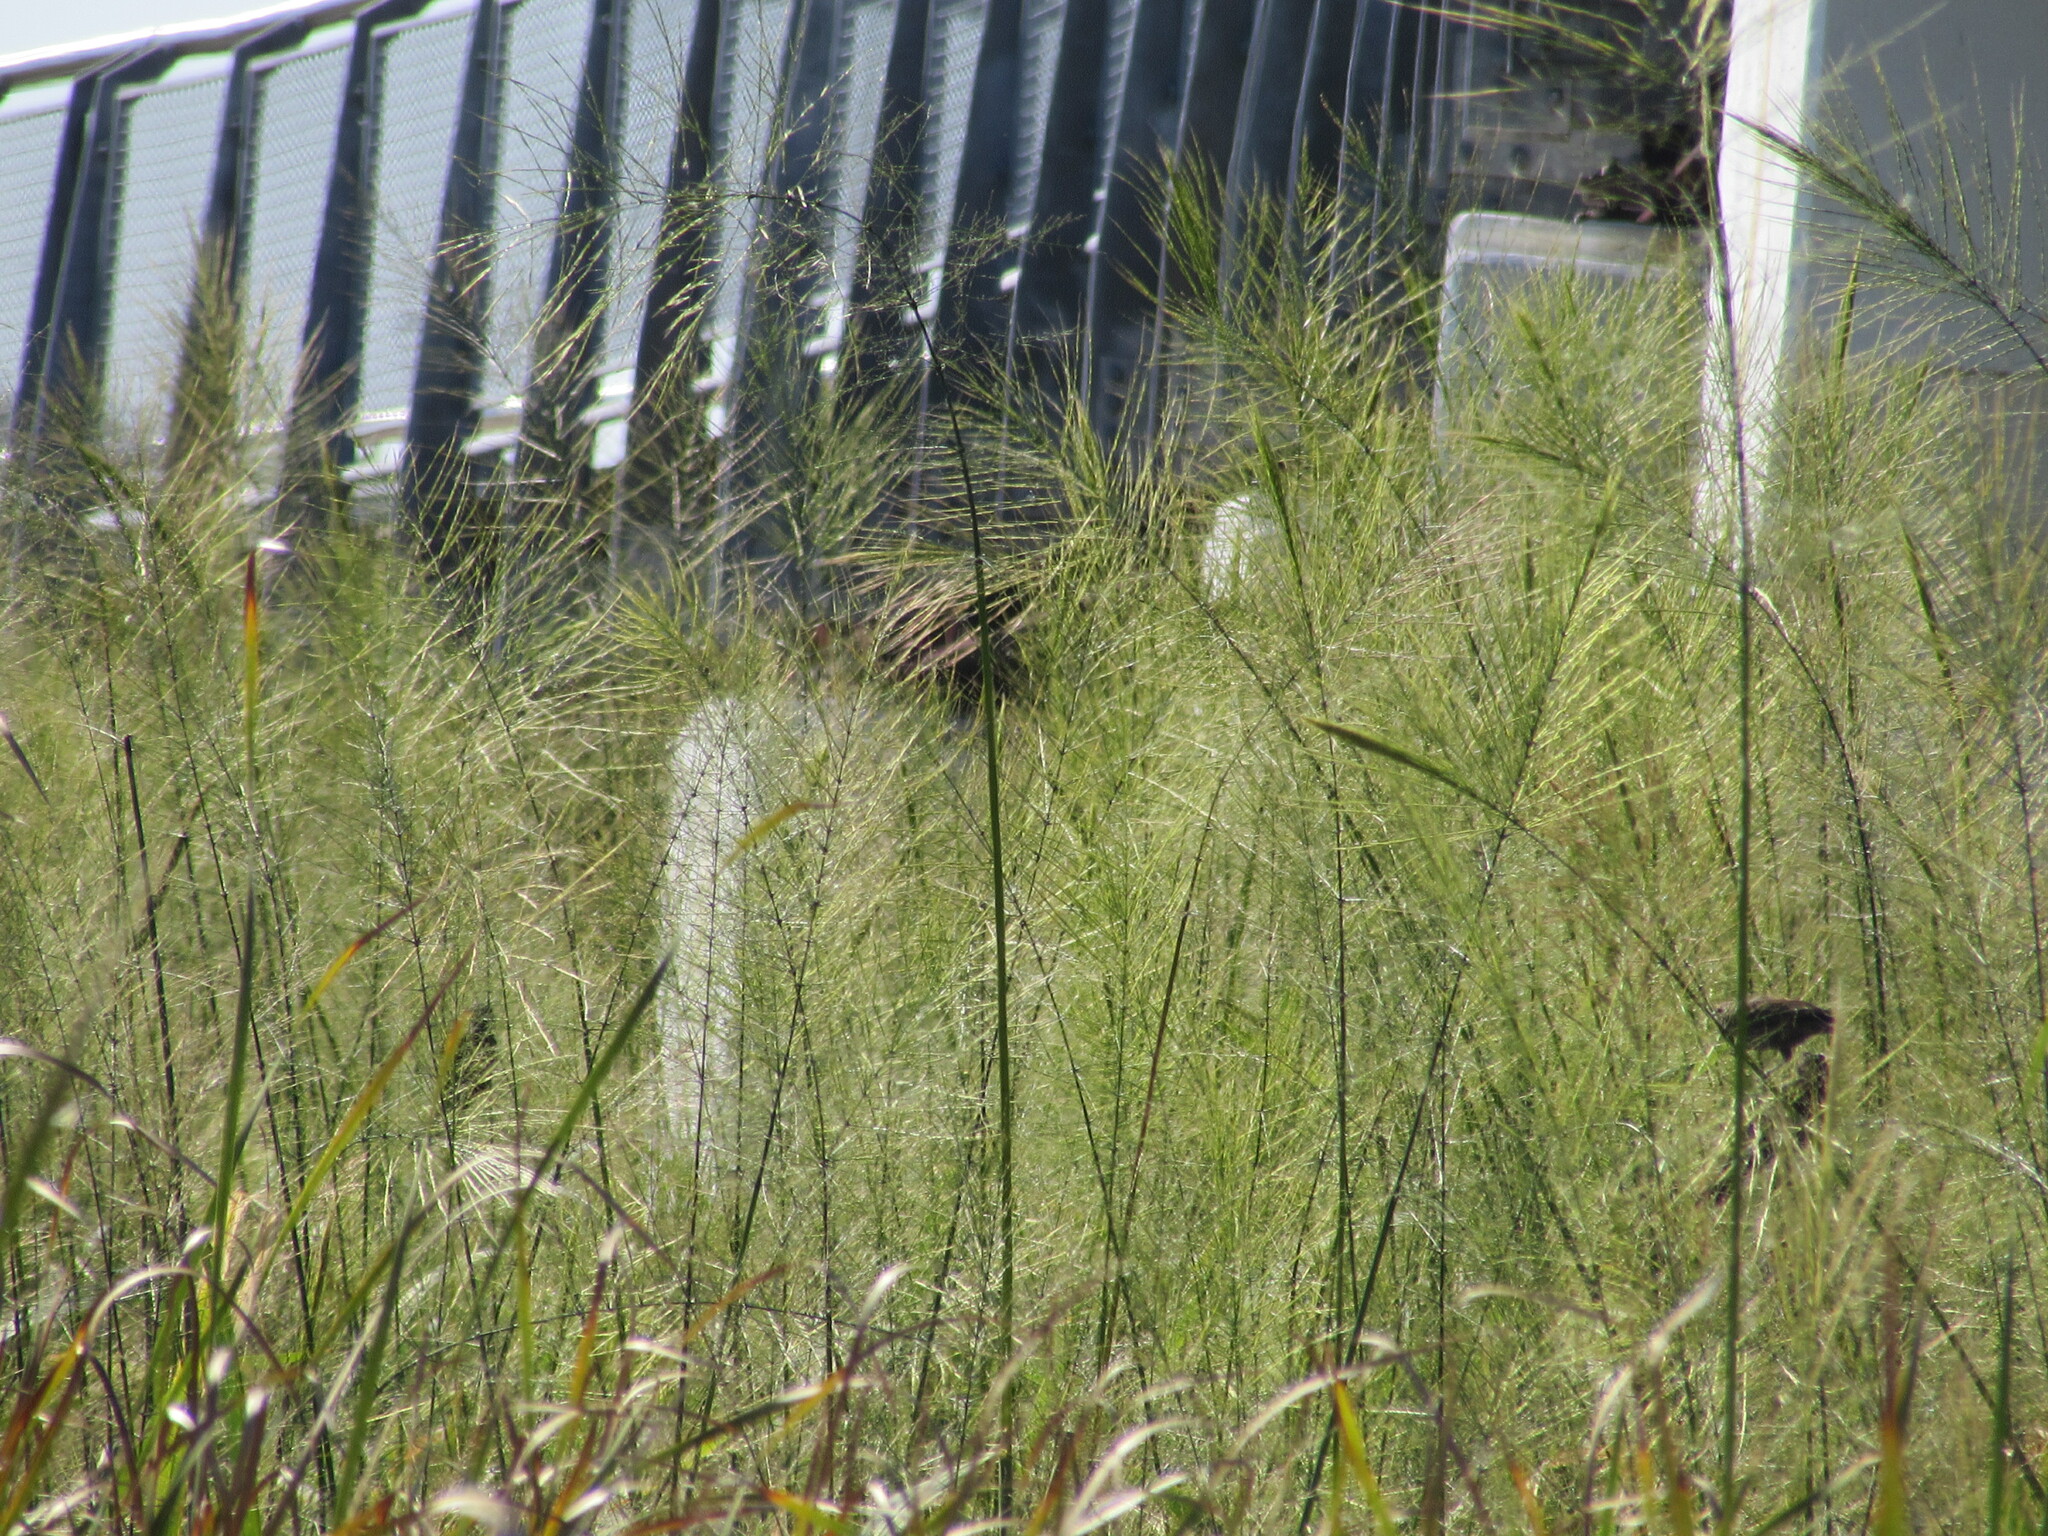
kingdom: Plantae
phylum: Tracheophyta
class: Liliopsida
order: Poales
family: Poaceae
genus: Zizania
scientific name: Zizania aquatica
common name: Annual wildrice
